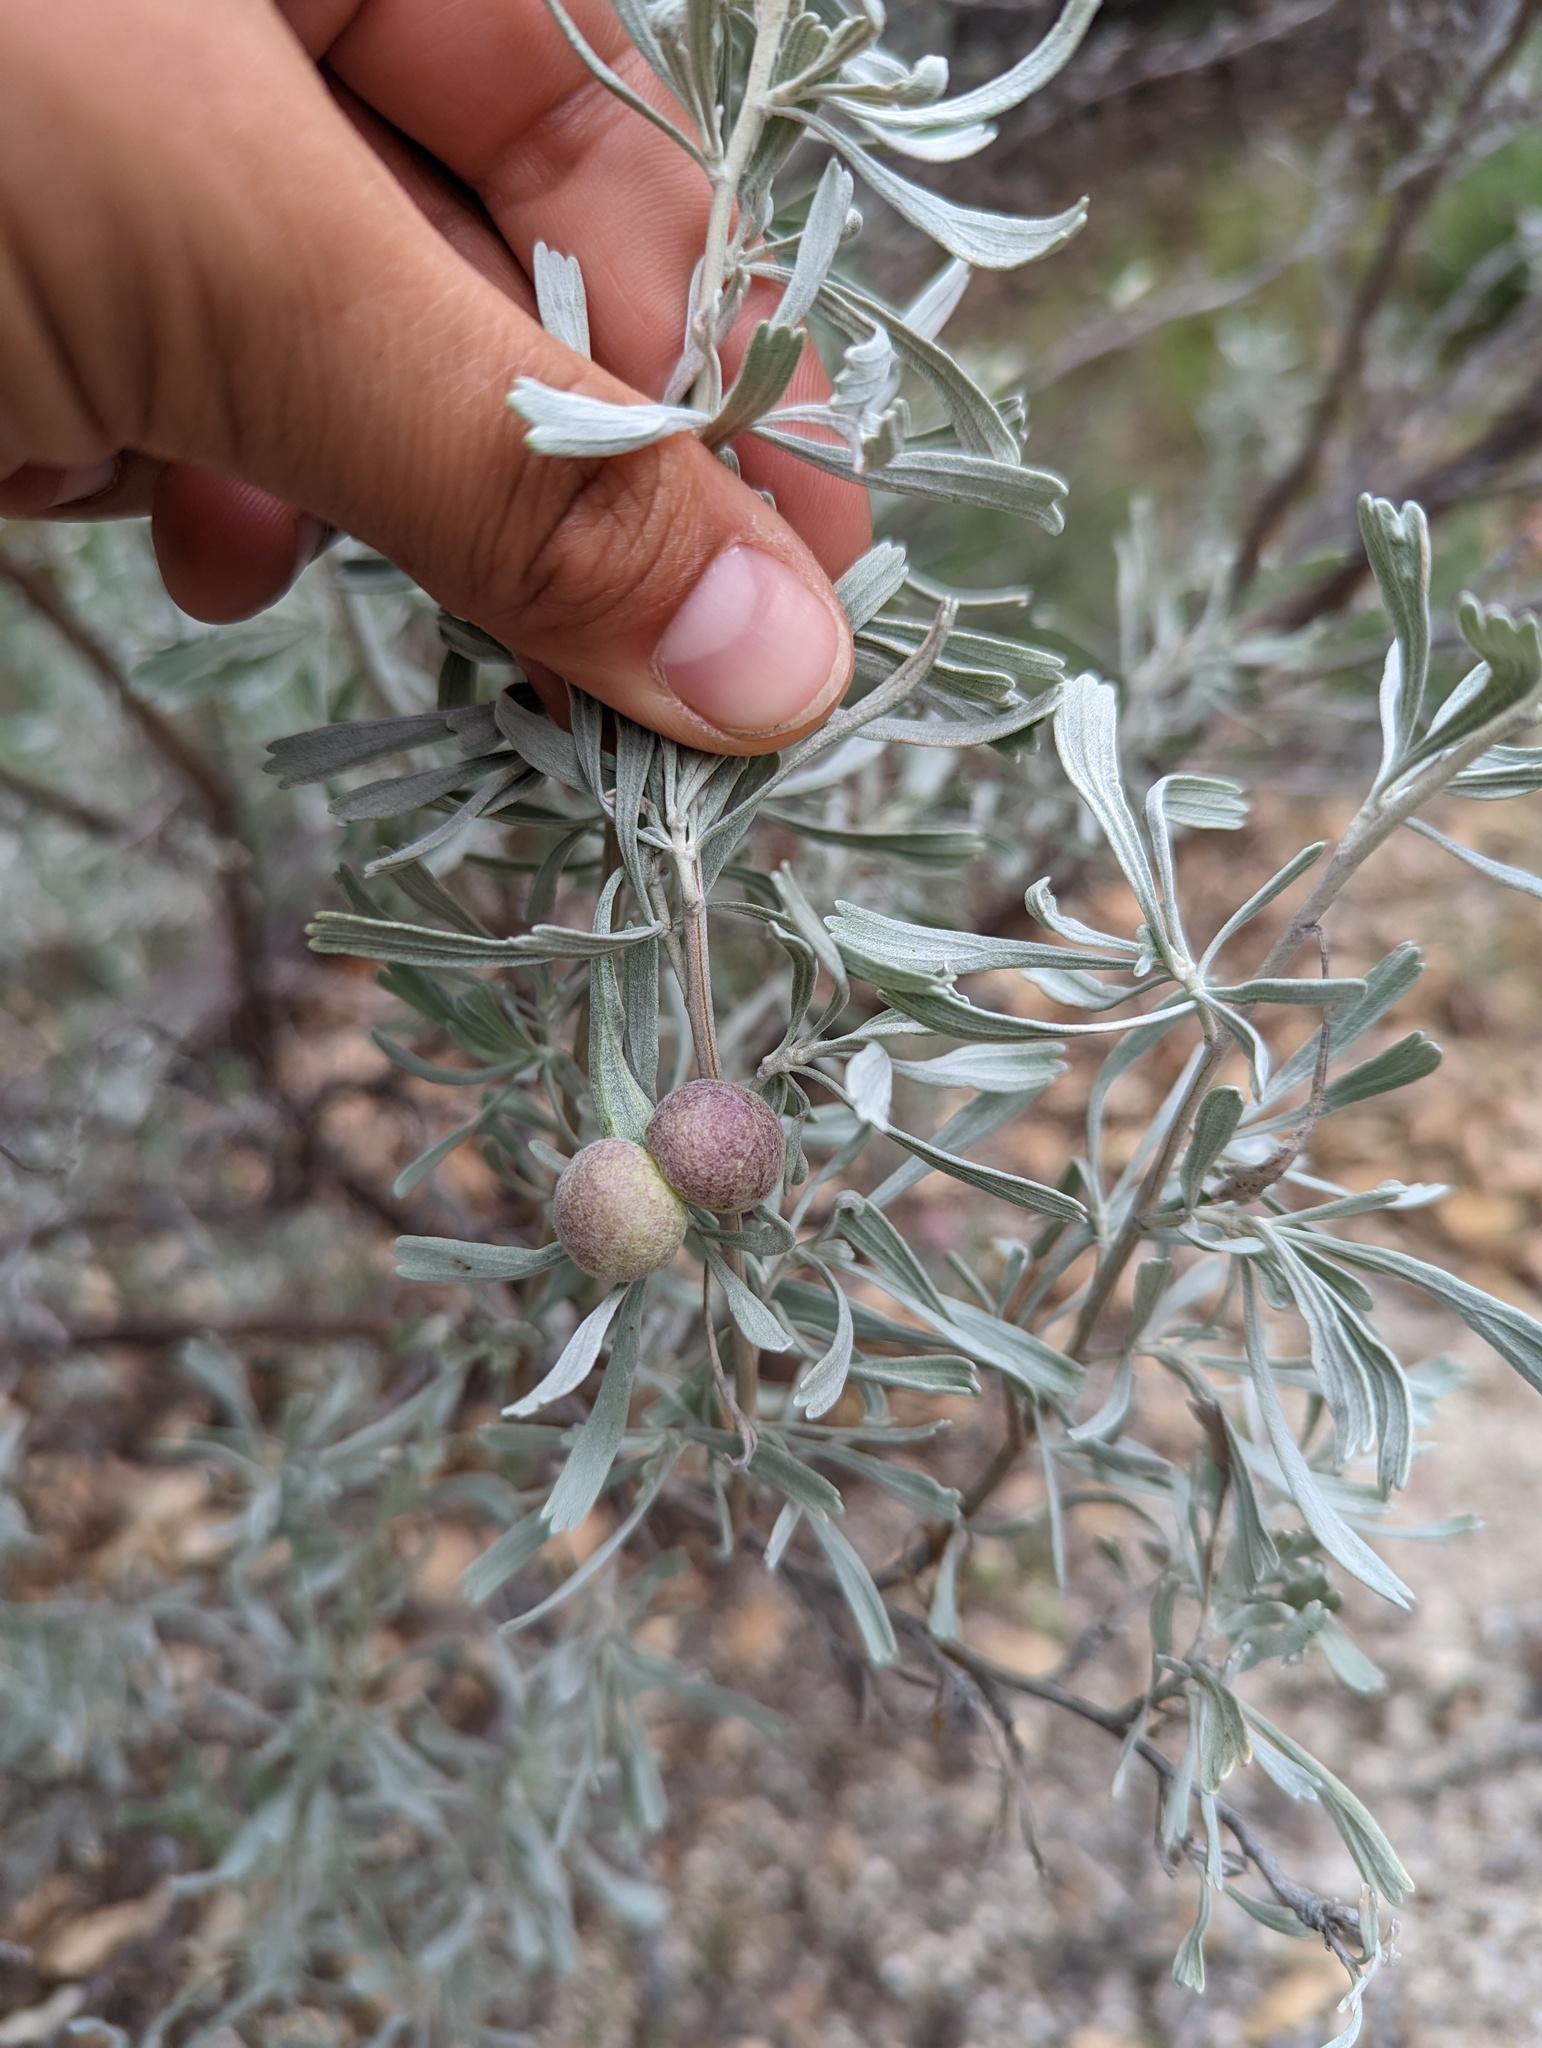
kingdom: Animalia
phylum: Arthropoda
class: Insecta
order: Diptera
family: Cecidomyiidae
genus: Rhopalomyia
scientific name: Rhopalomyia pomum
